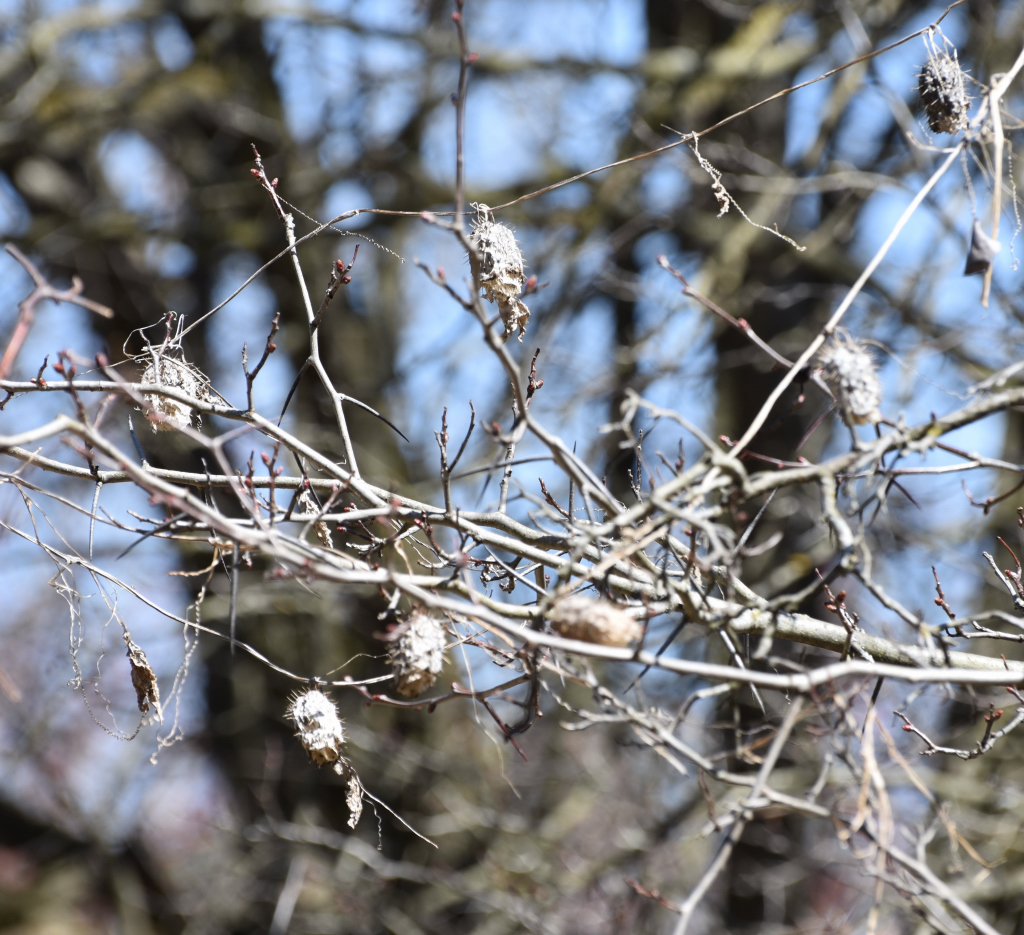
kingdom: Plantae
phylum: Tracheophyta
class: Magnoliopsida
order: Cucurbitales
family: Cucurbitaceae
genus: Echinocystis
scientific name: Echinocystis lobata
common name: Wild cucumber
